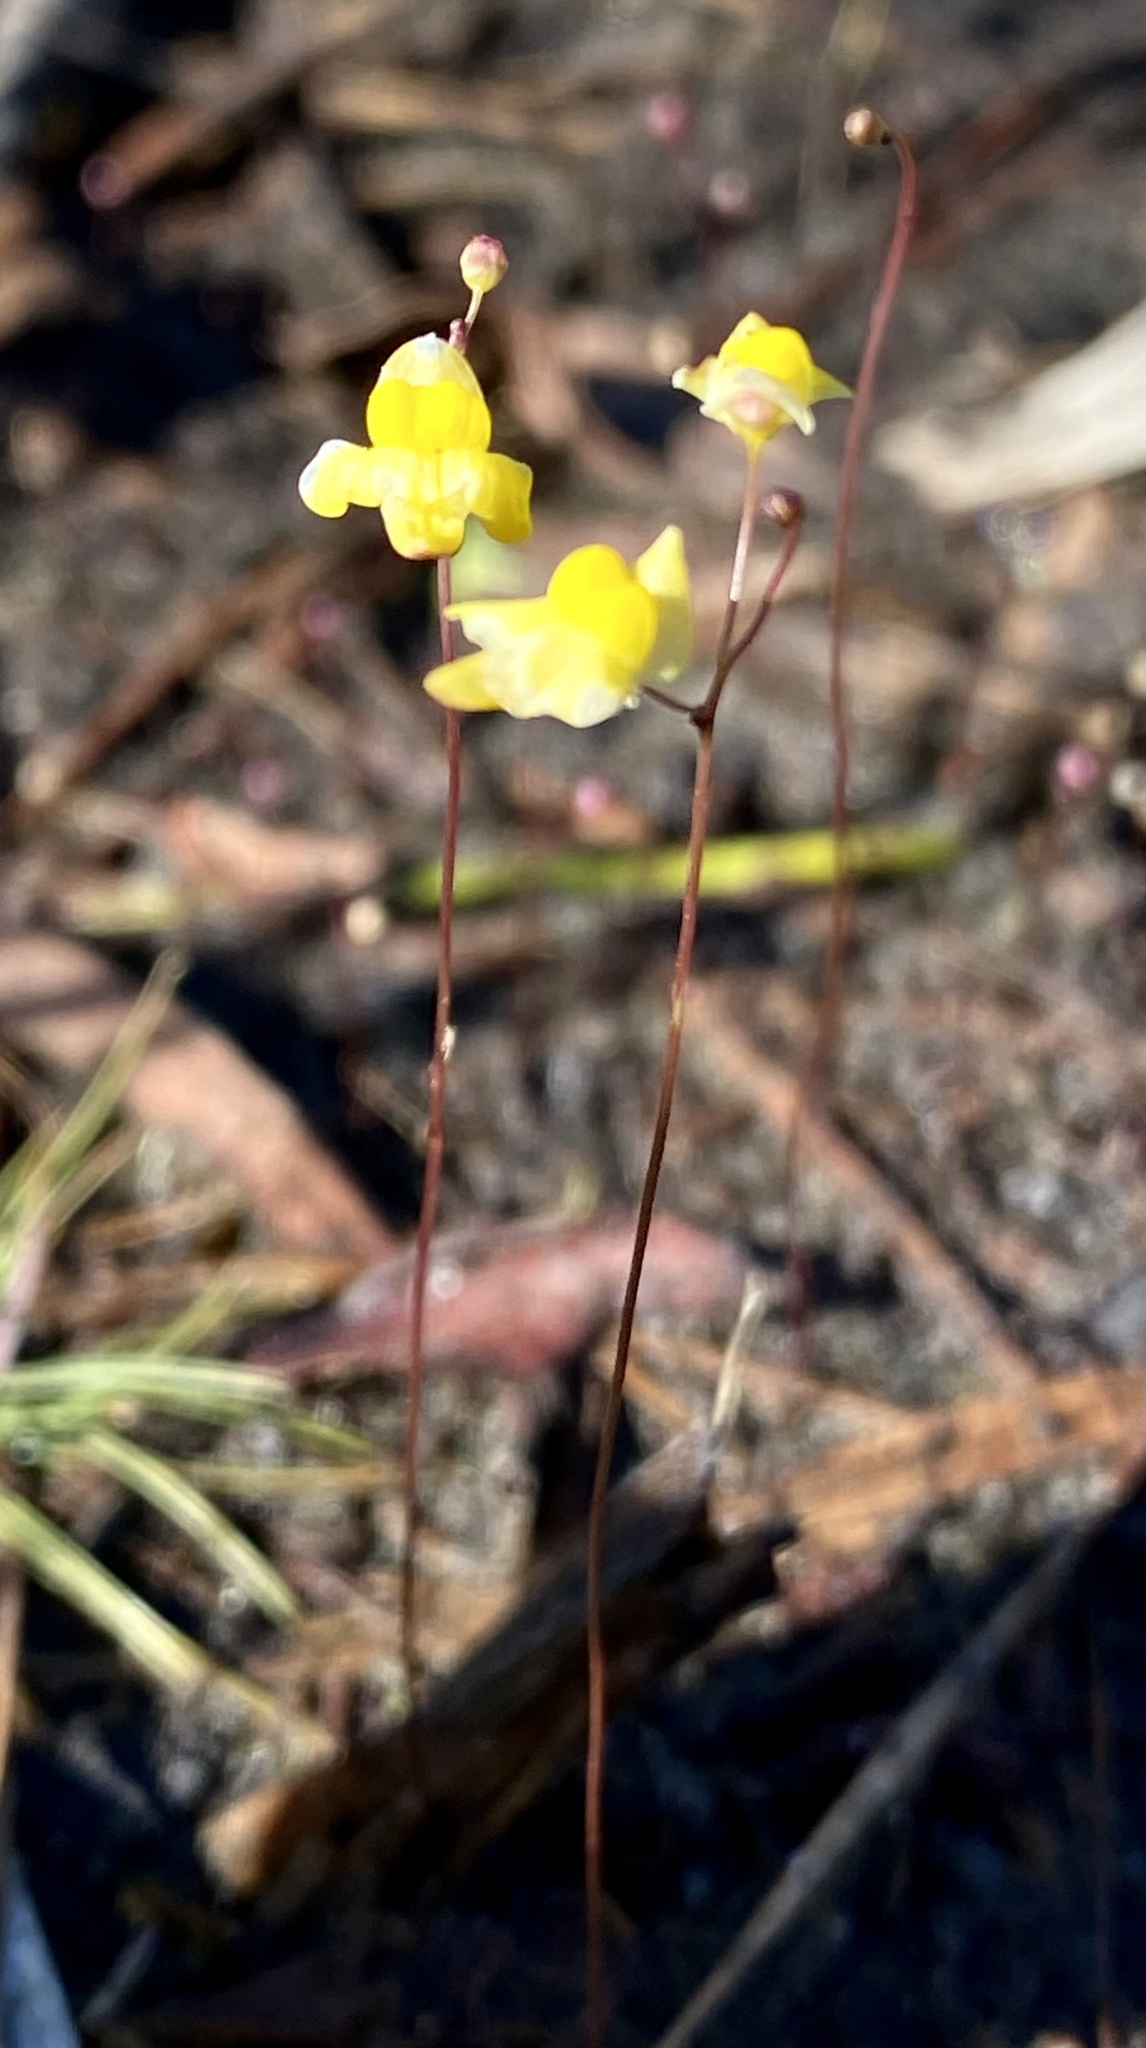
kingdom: Plantae
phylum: Tracheophyta
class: Magnoliopsida
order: Lamiales
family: Lentibulariaceae
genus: Utricularia
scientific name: Utricularia subulata
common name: Tiny bladderwort
